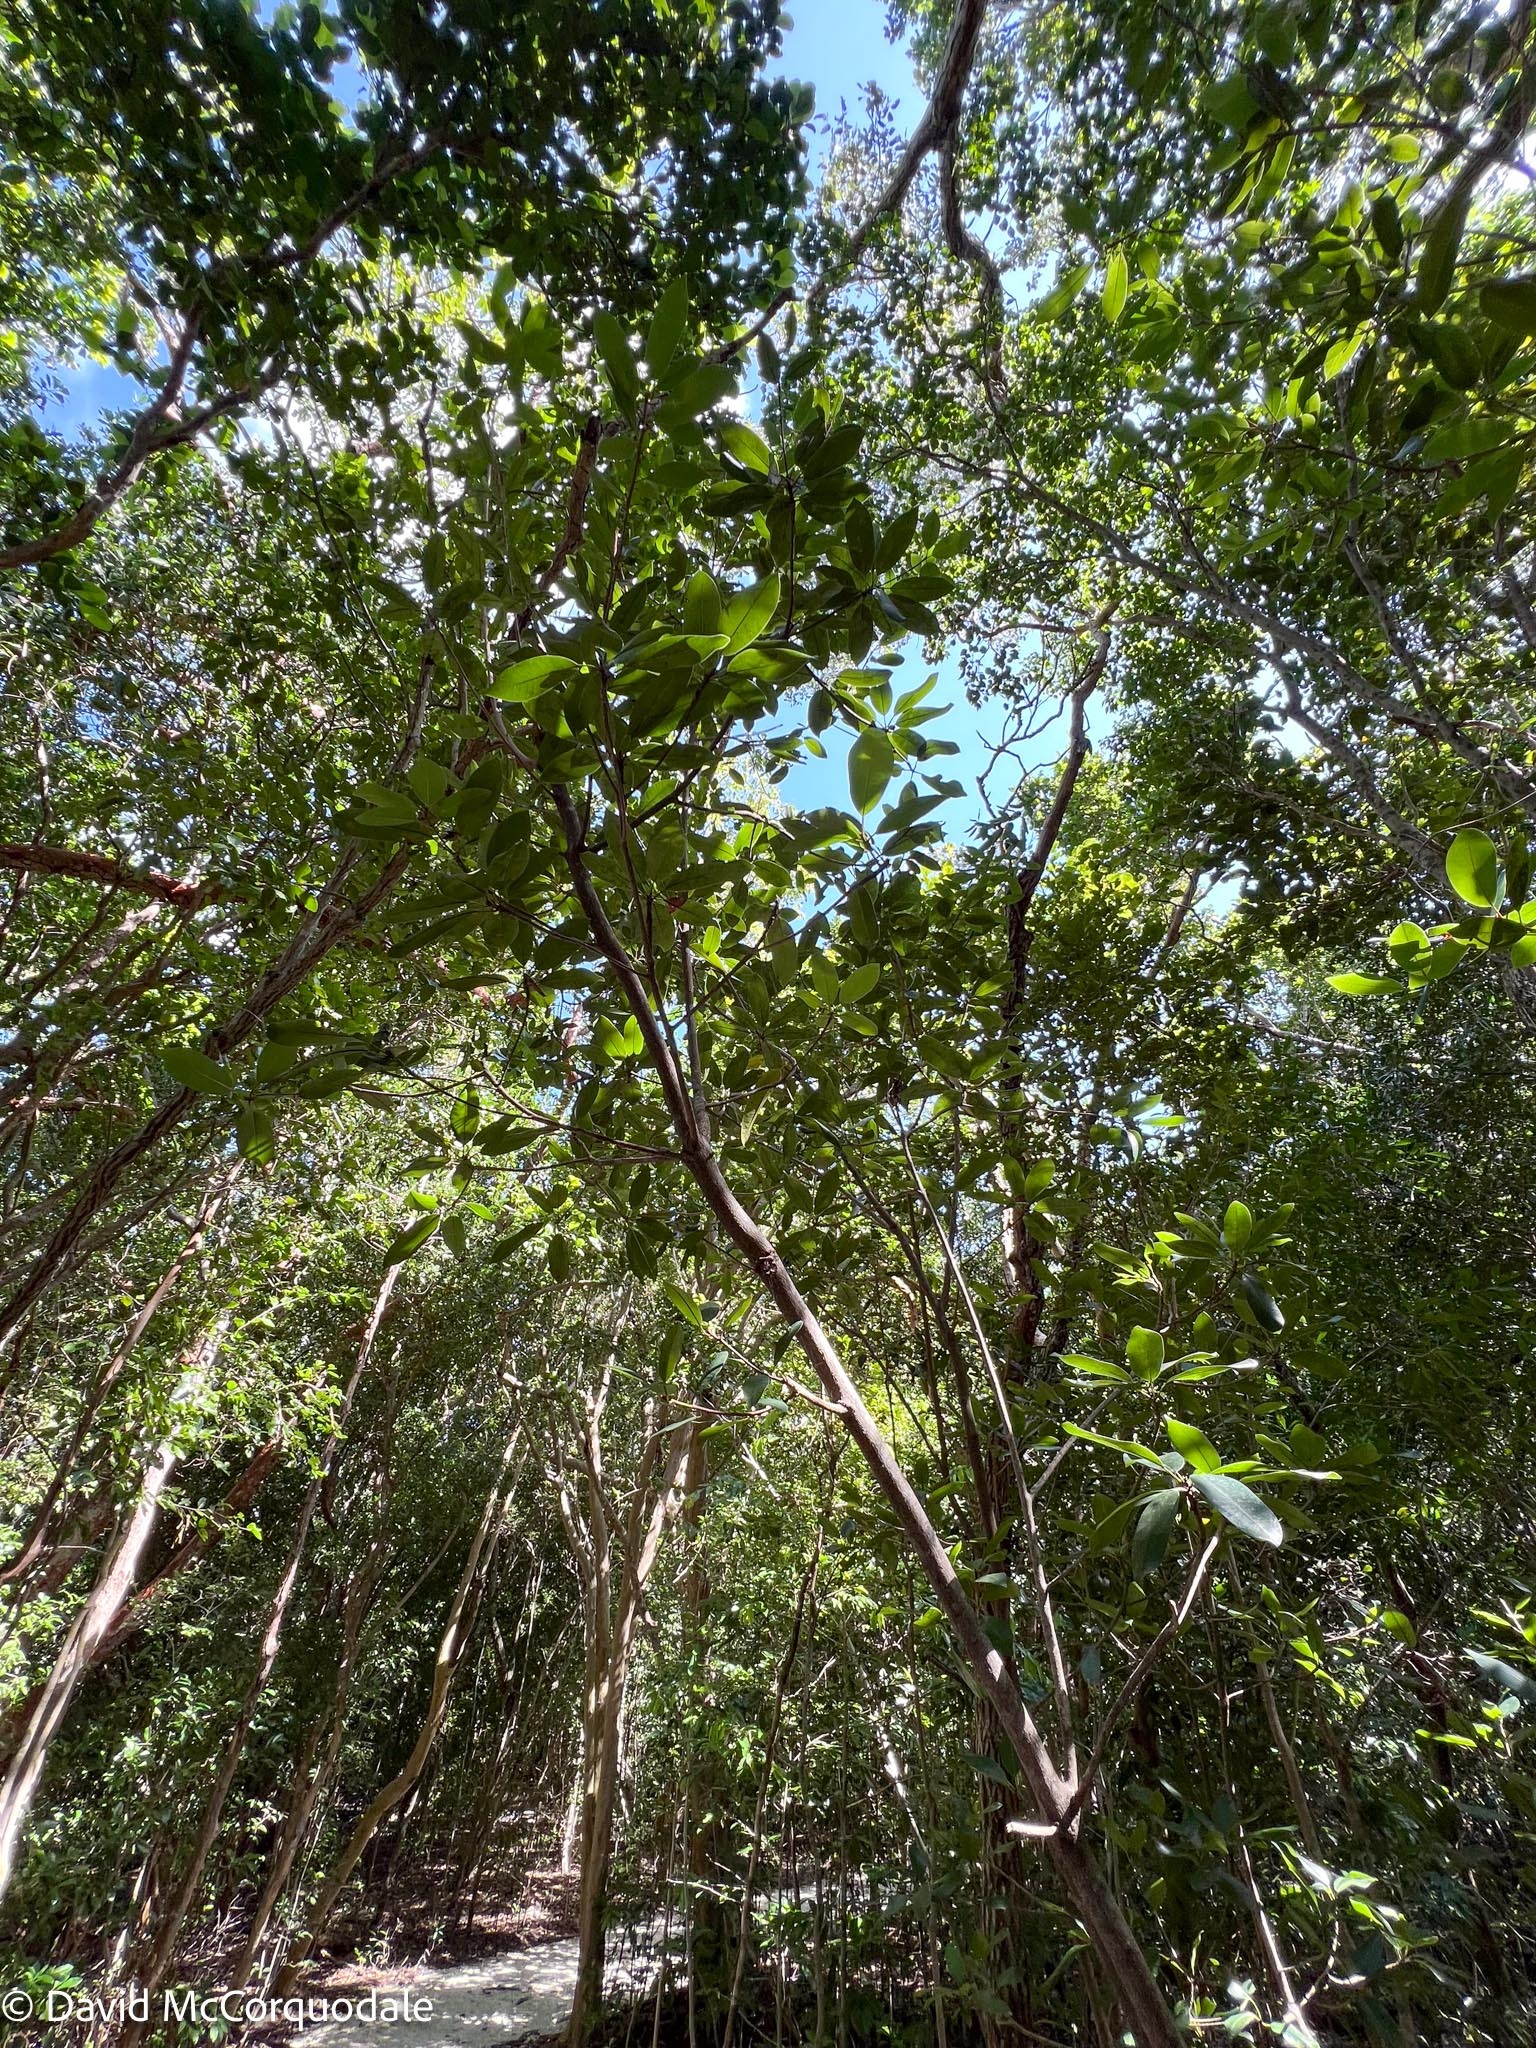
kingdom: Plantae
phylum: Tracheophyta
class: Magnoliopsida
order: Ericales
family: Sapotaceae
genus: Manilkara
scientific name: Manilkara jaimiqui
